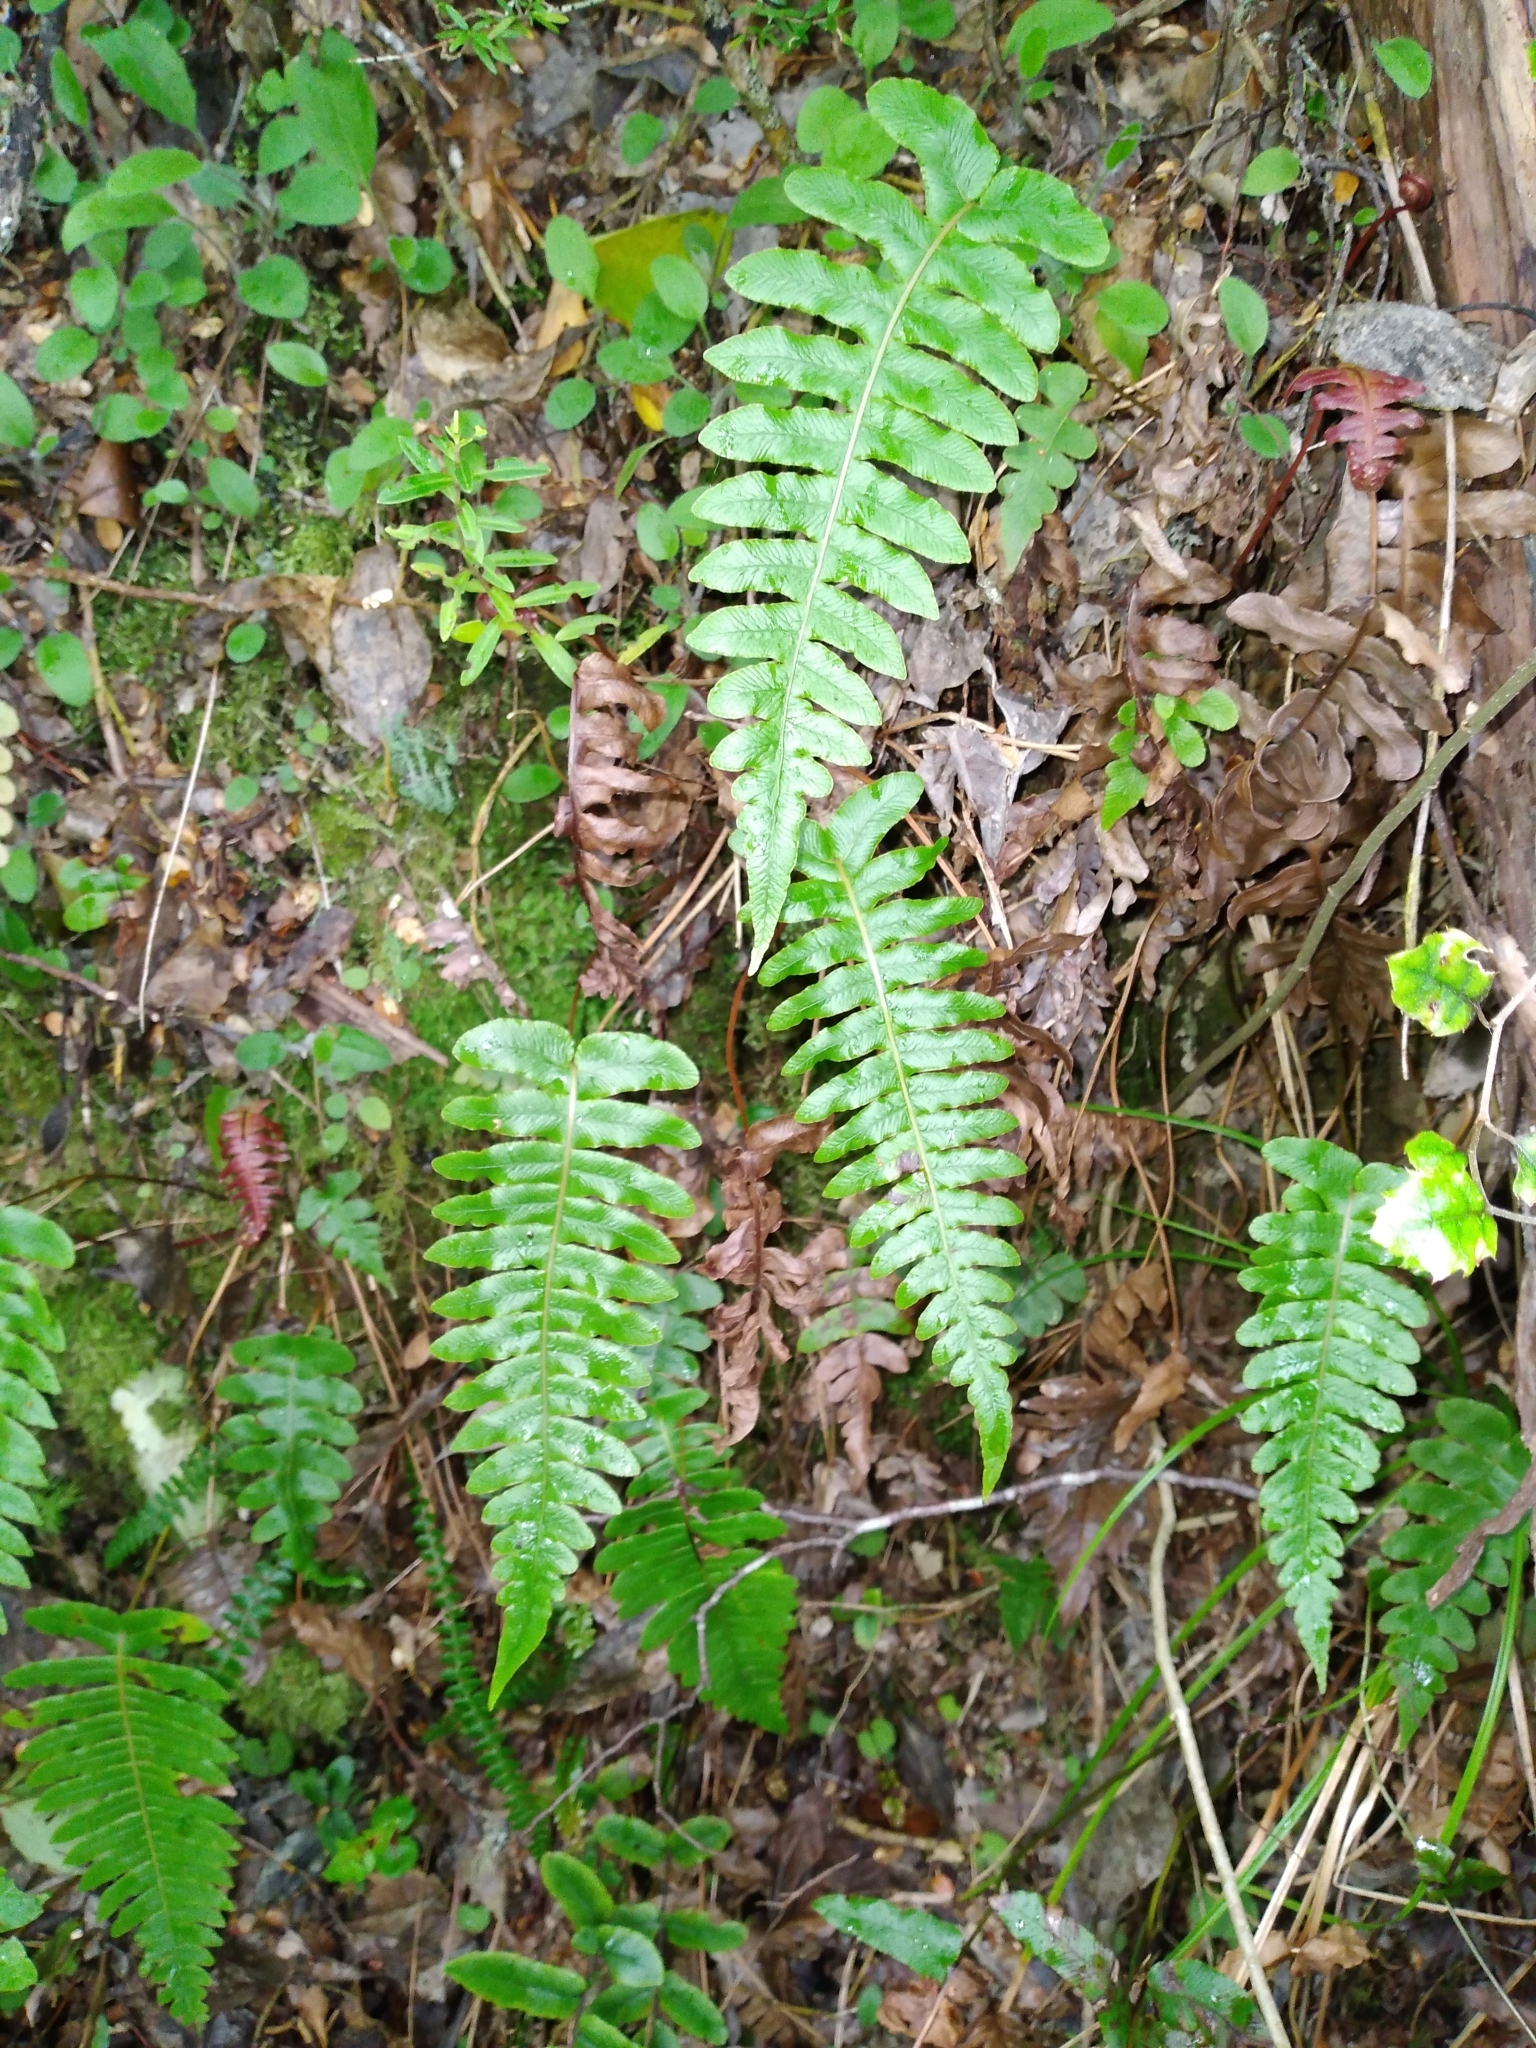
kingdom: Plantae
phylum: Tracheophyta
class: Polypodiopsida
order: Polypodiales
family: Blechnaceae
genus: Cranfillia
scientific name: Cranfillia deltoides
